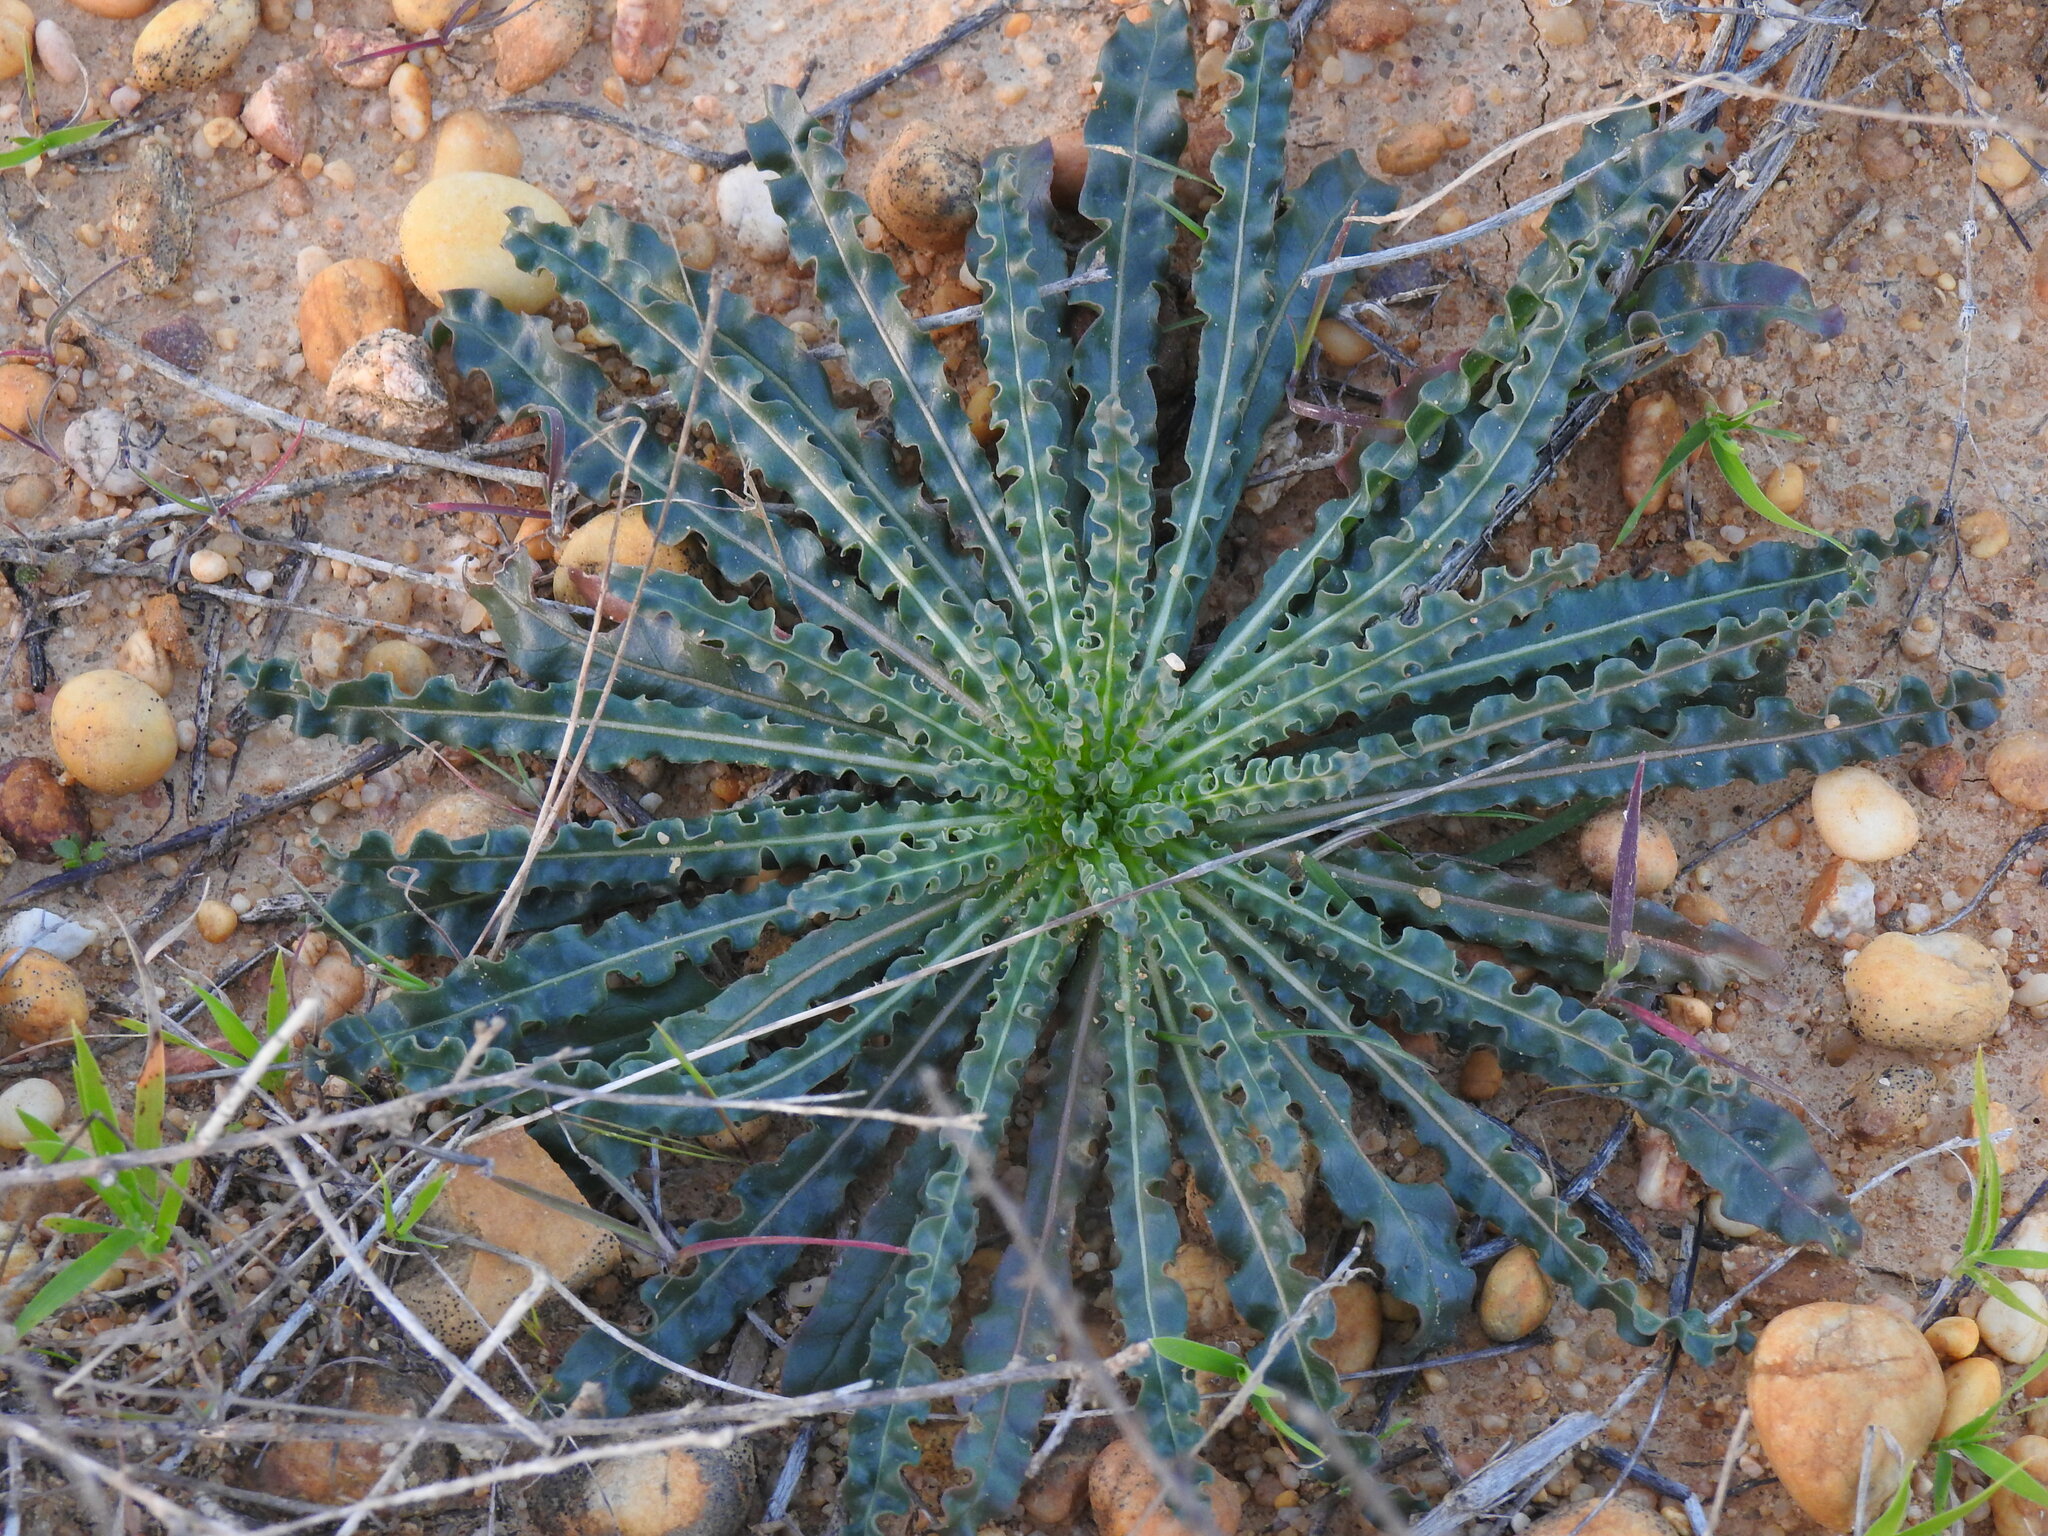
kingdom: Plantae
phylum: Tracheophyta
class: Magnoliopsida
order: Brassicales
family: Resedaceae
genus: Reseda
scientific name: Reseda luteola
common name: Weld
